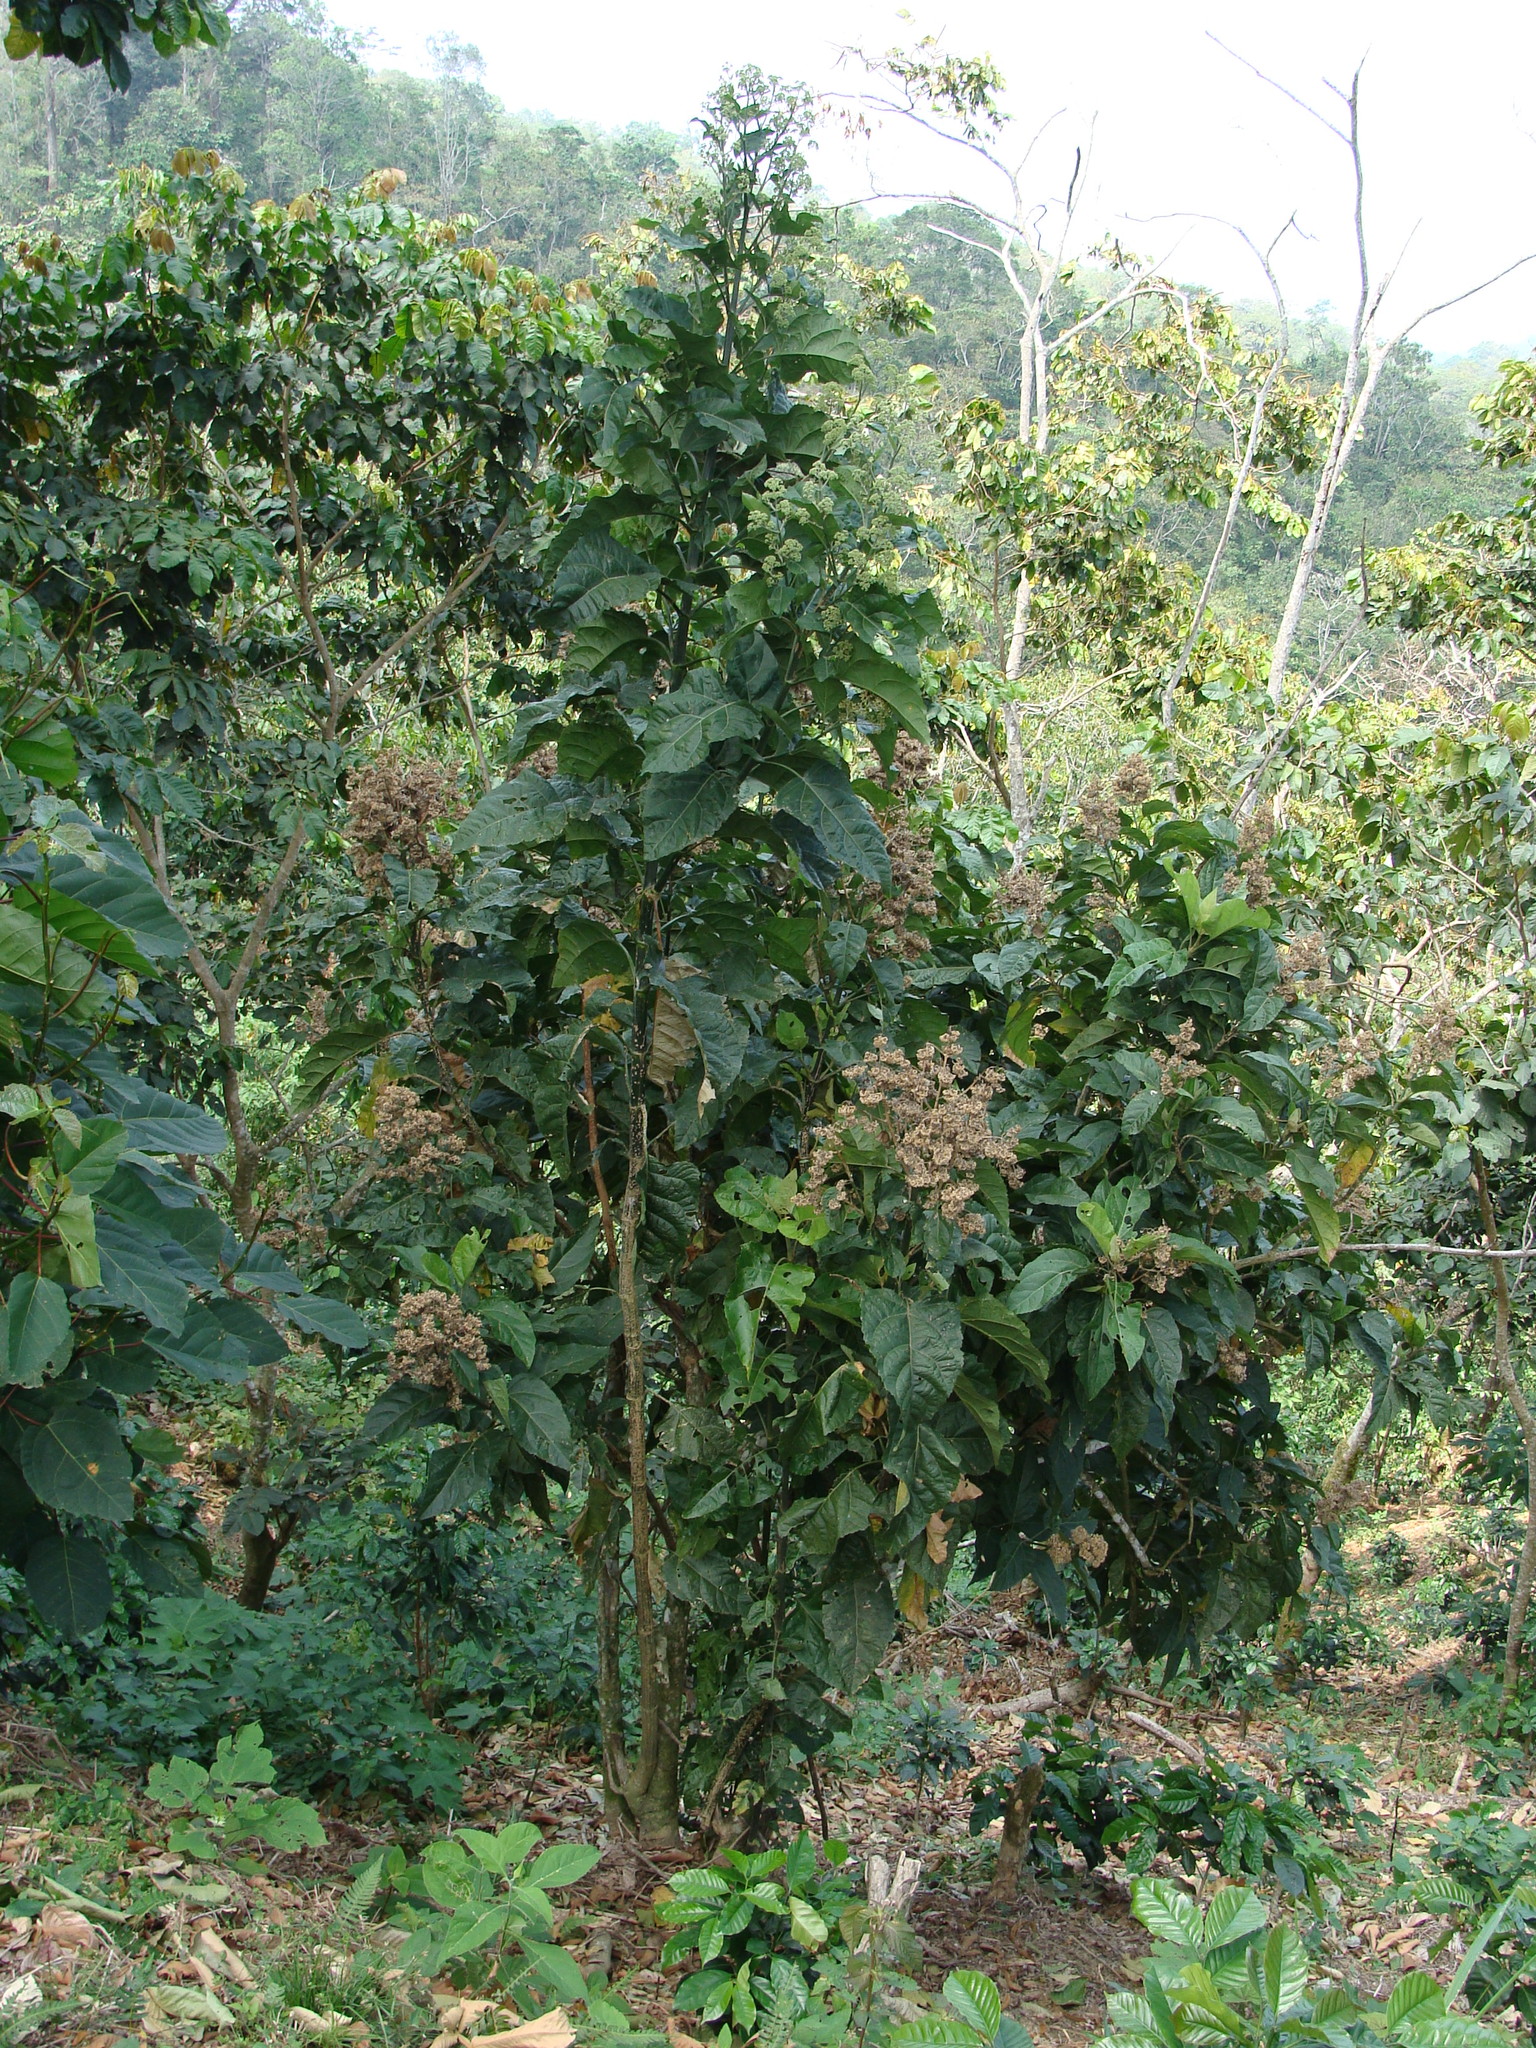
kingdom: Plantae
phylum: Tracheophyta
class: Magnoliopsida
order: Asterales
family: Asteraceae
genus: Critonia
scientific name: Critonia morifolia
